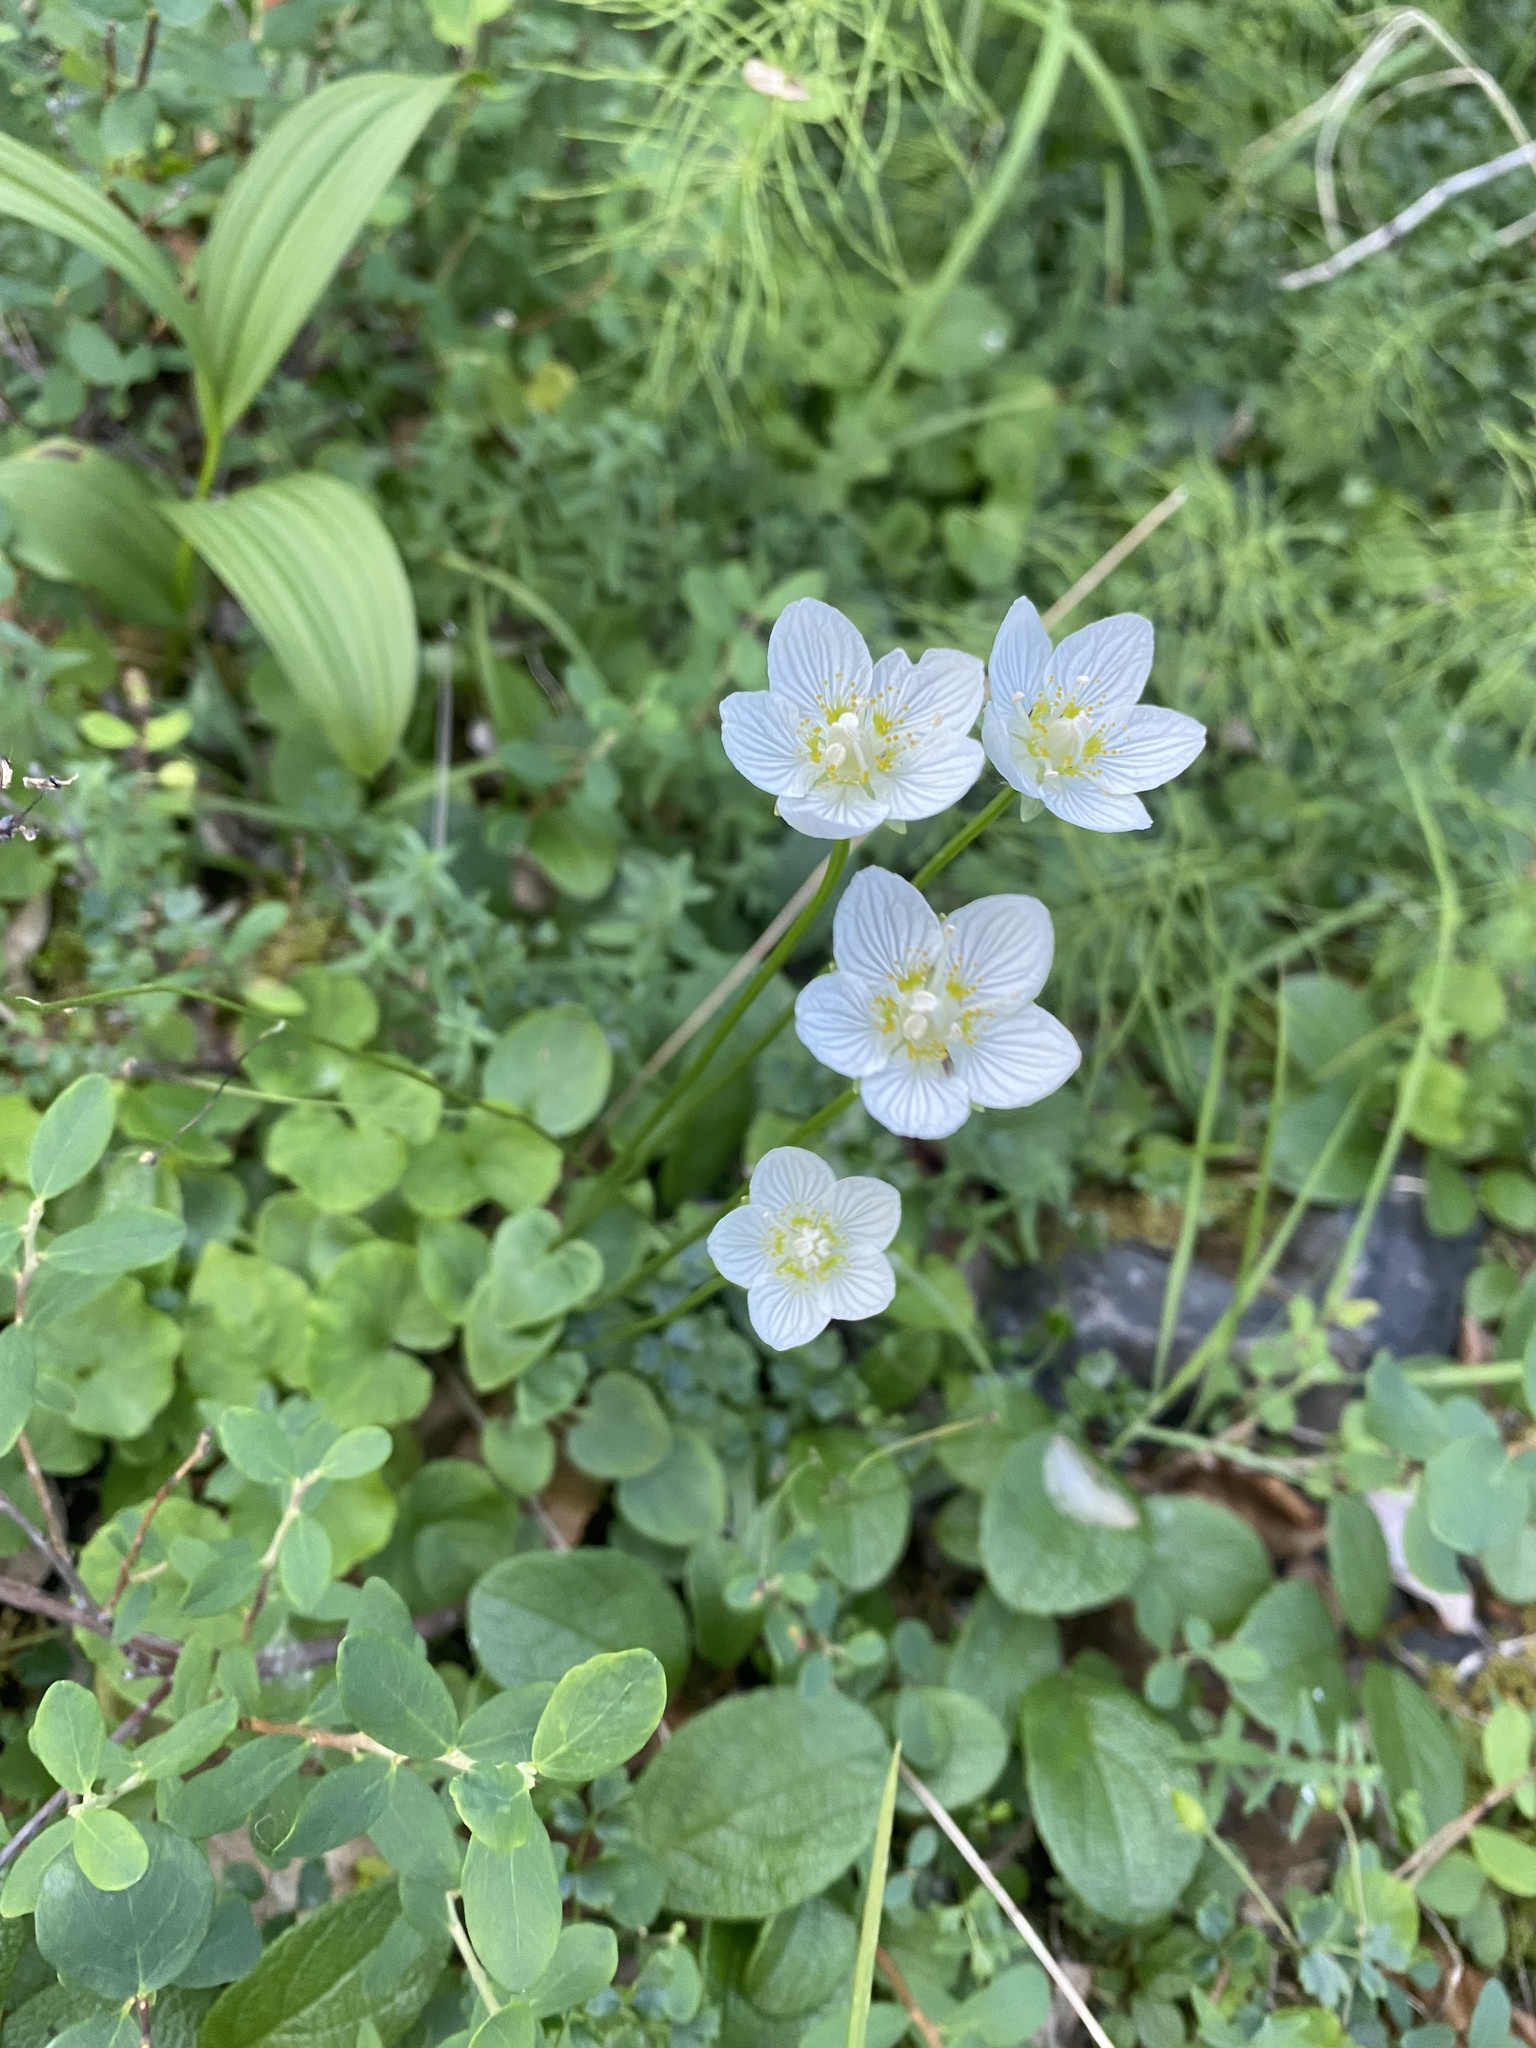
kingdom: Plantae
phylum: Tracheophyta
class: Magnoliopsida
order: Celastrales
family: Parnassiaceae
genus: Parnassia
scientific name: Parnassia palustris
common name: Grass-of-parnassus
